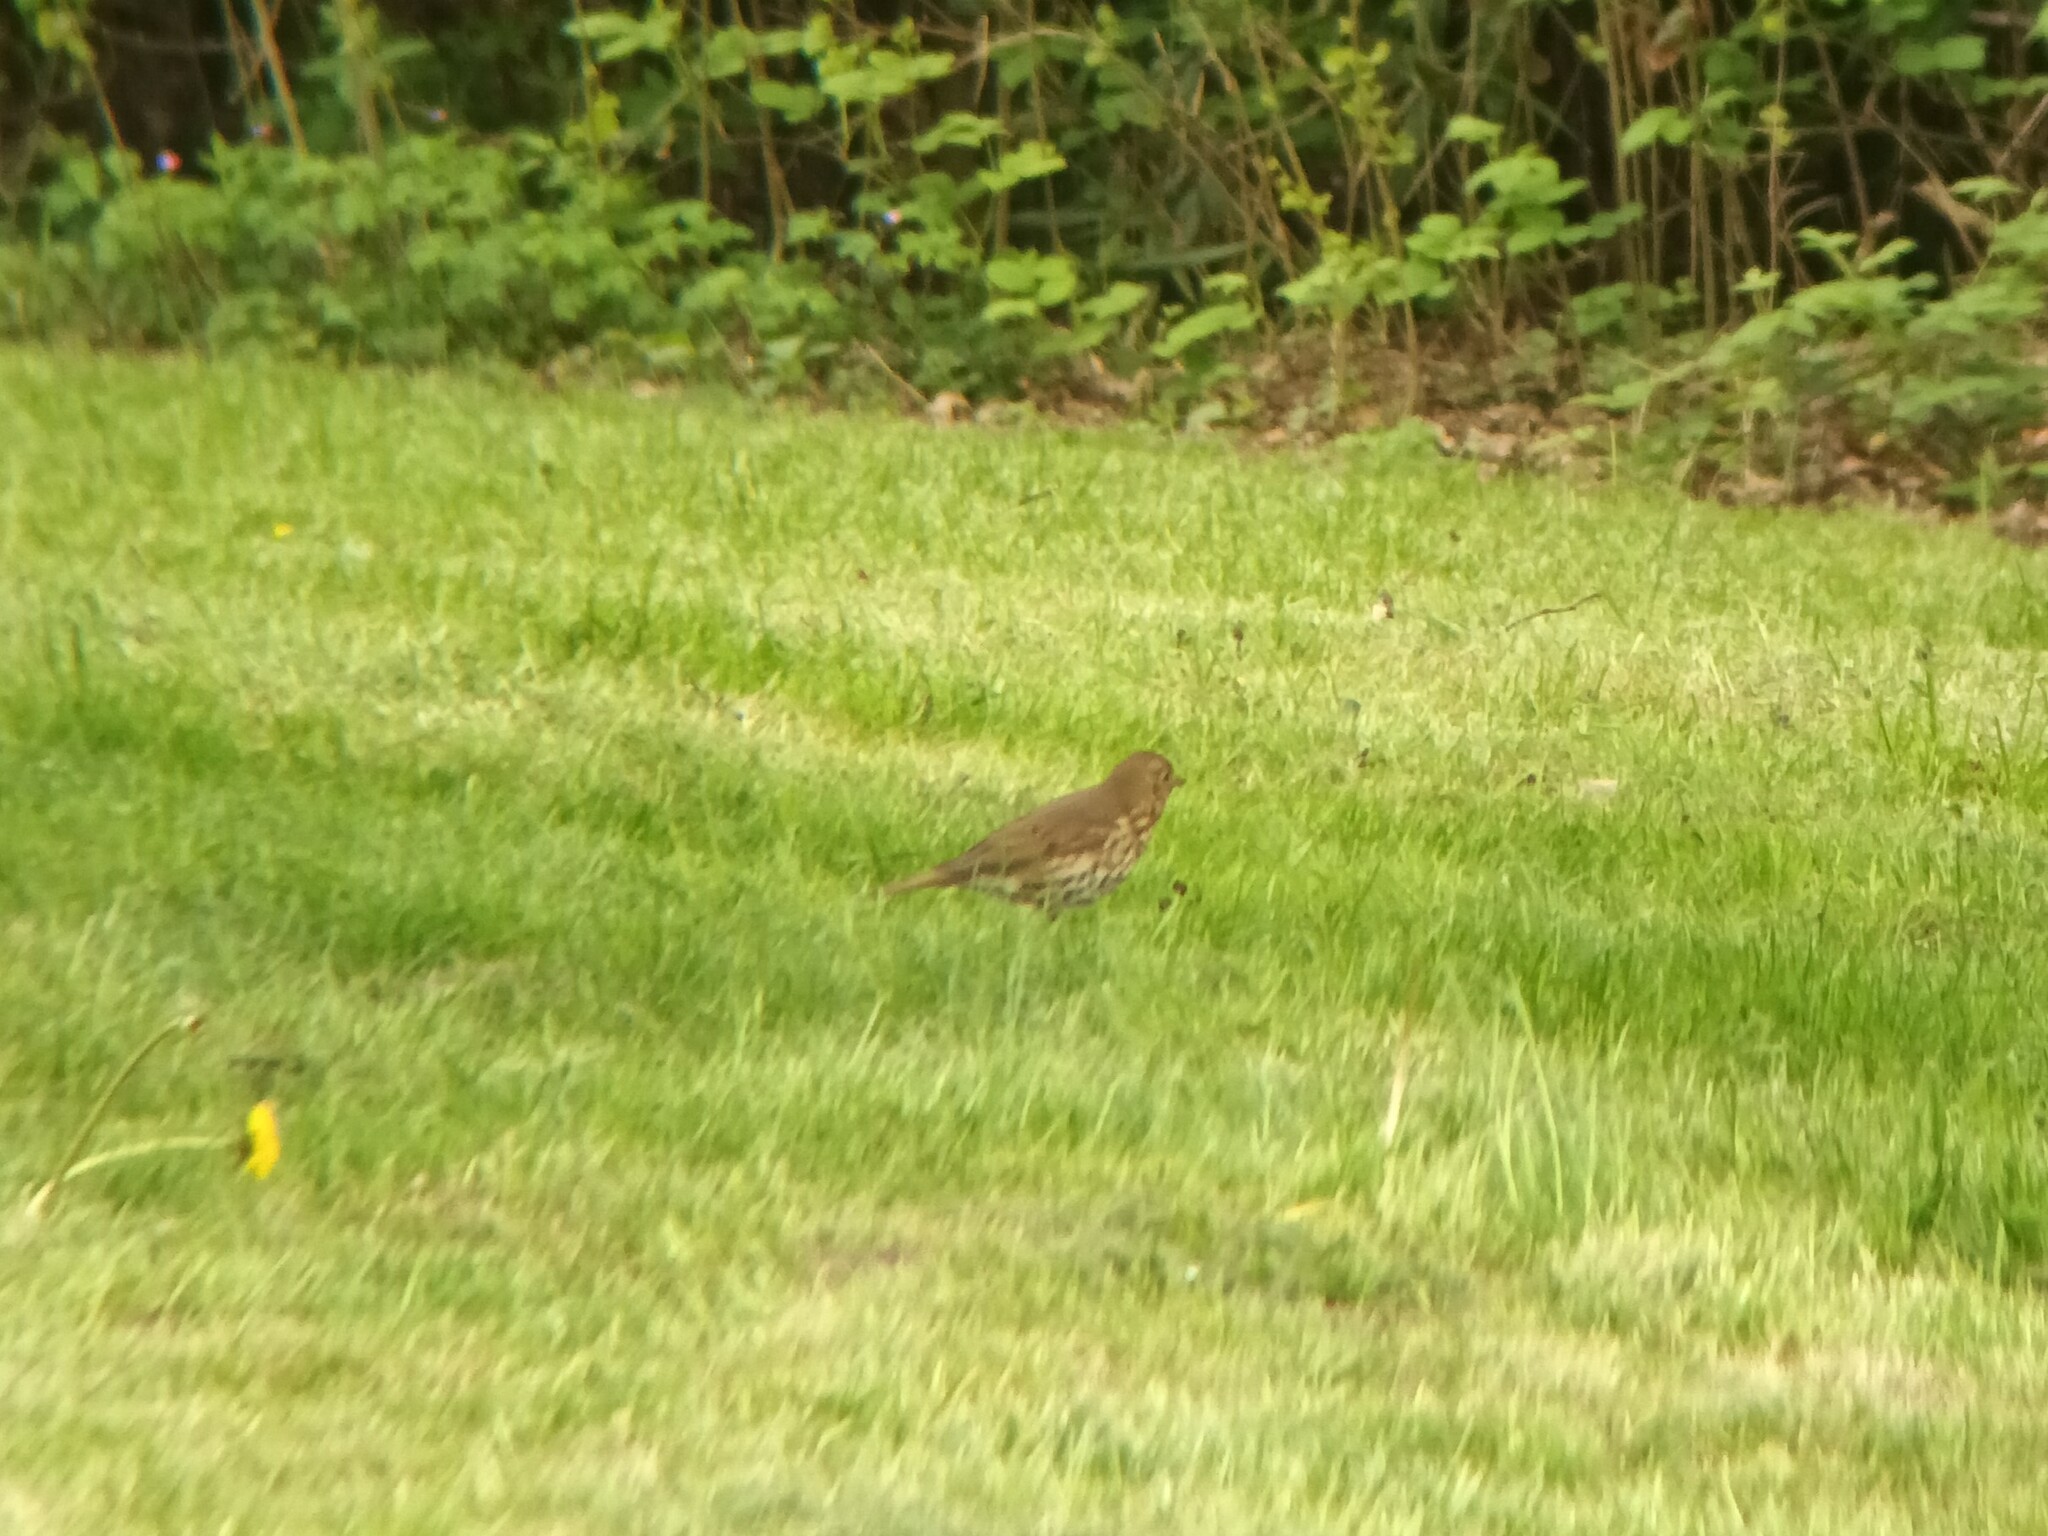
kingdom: Animalia
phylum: Chordata
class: Aves
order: Passeriformes
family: Turdidae
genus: Turdus
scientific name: Turdus philomelos
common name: Song thrush
